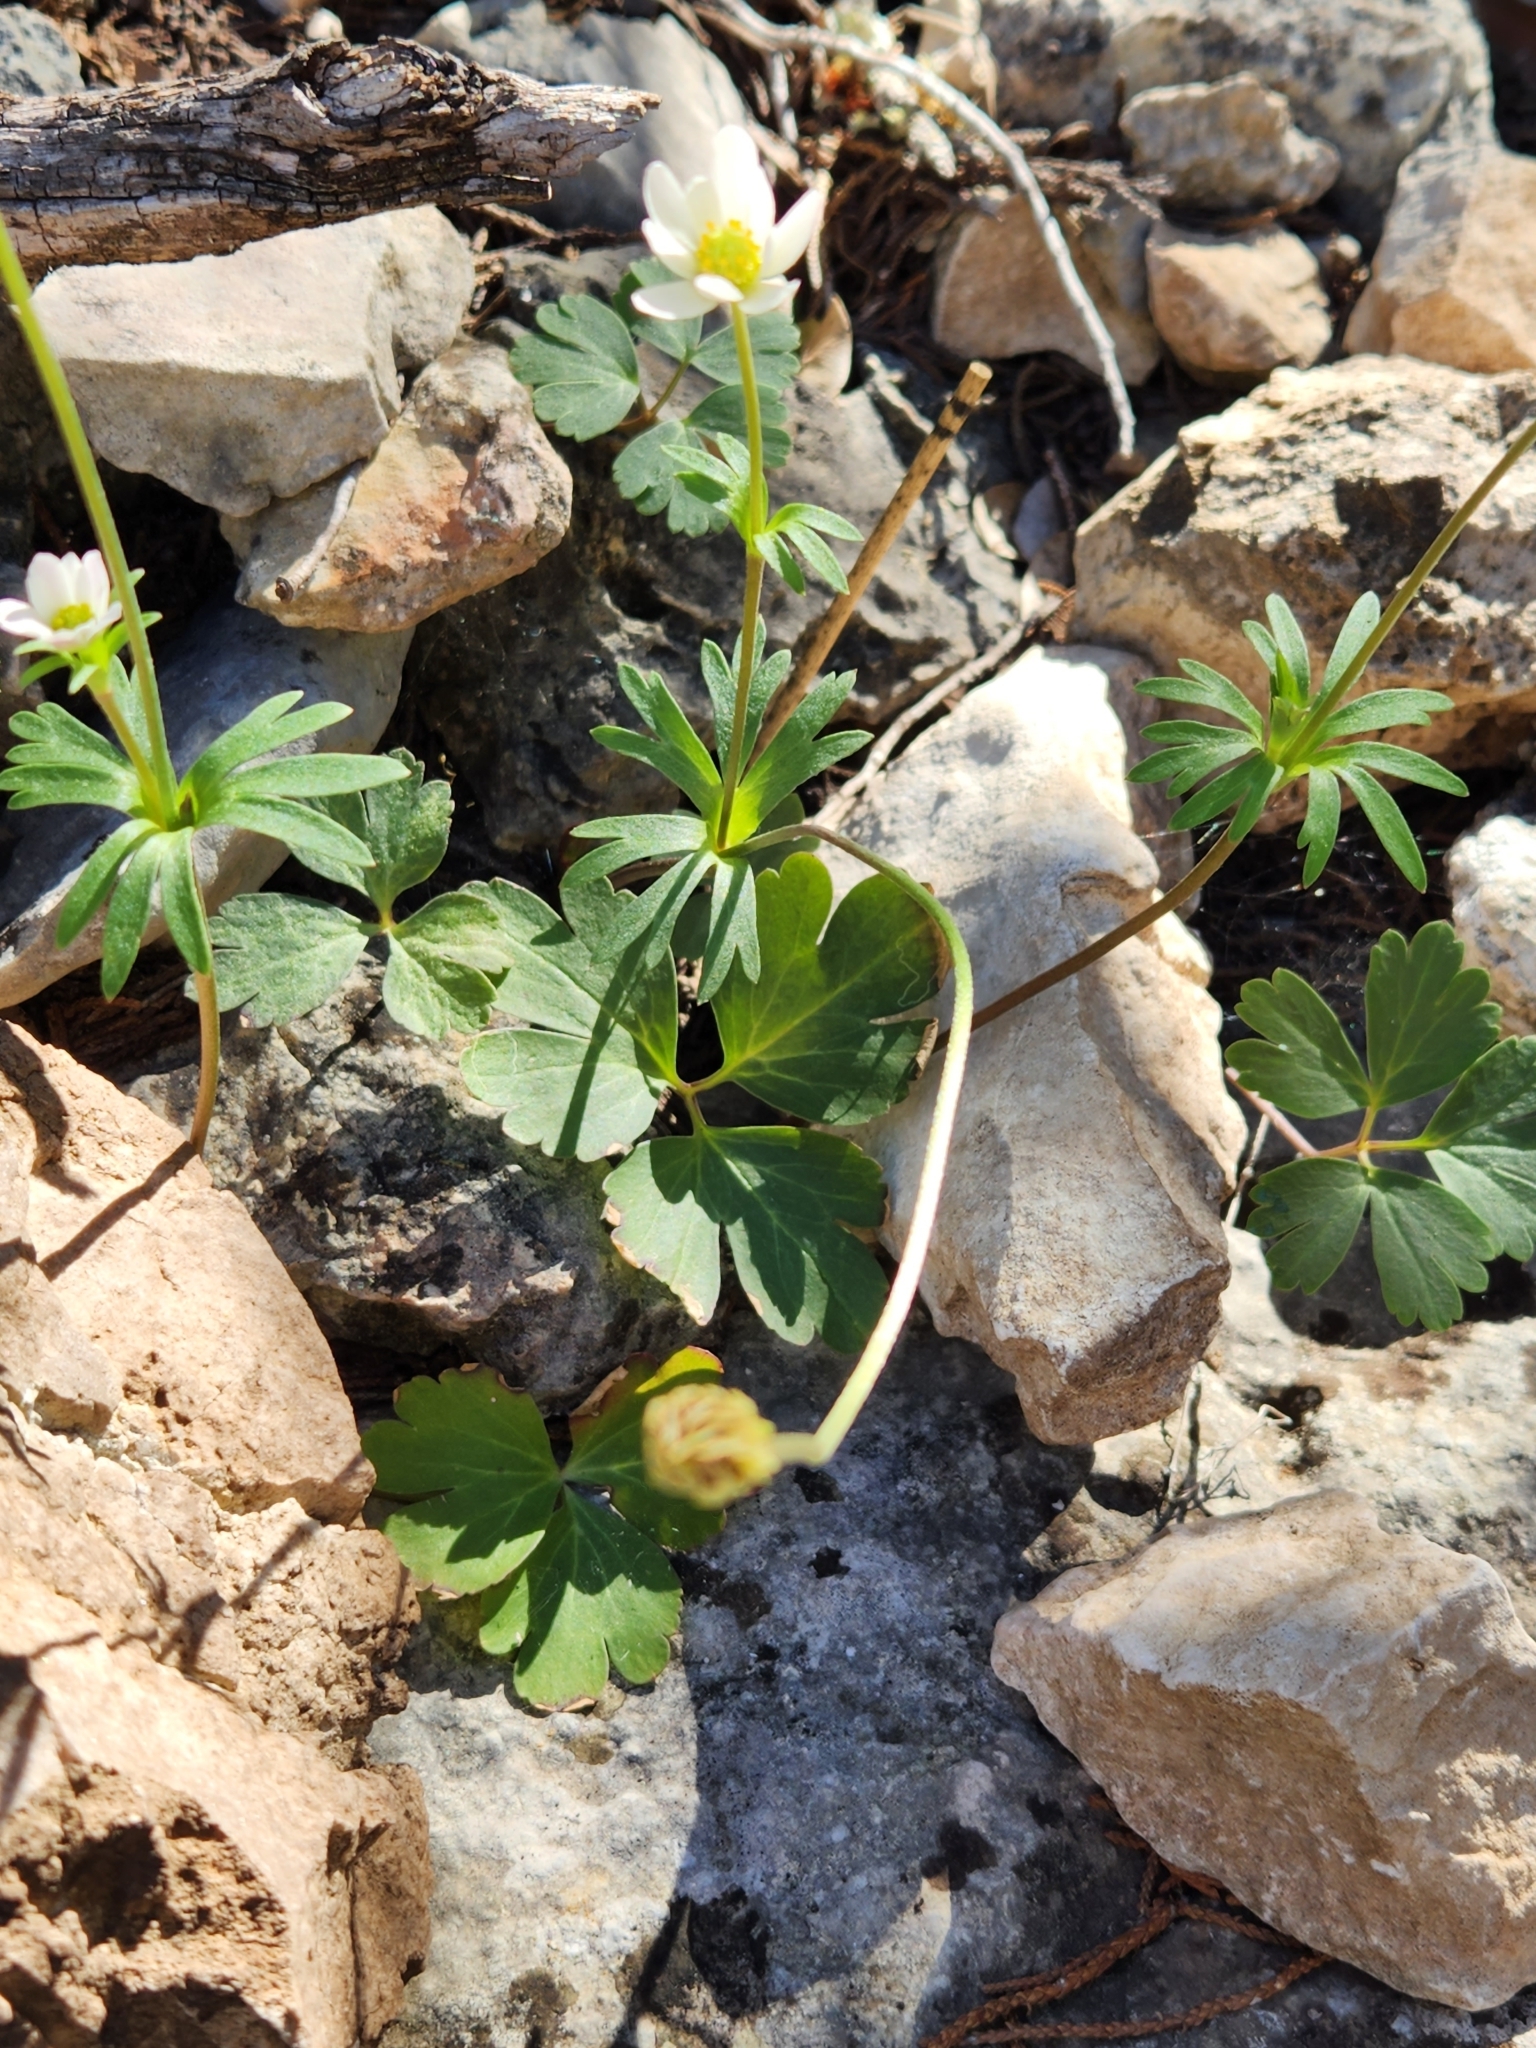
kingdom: Plantae
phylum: Tracheophyta
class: Magnoliopsida
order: Ranunculales
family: Ranunculaceae
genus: Anemone
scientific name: Anemone edwardsiana
